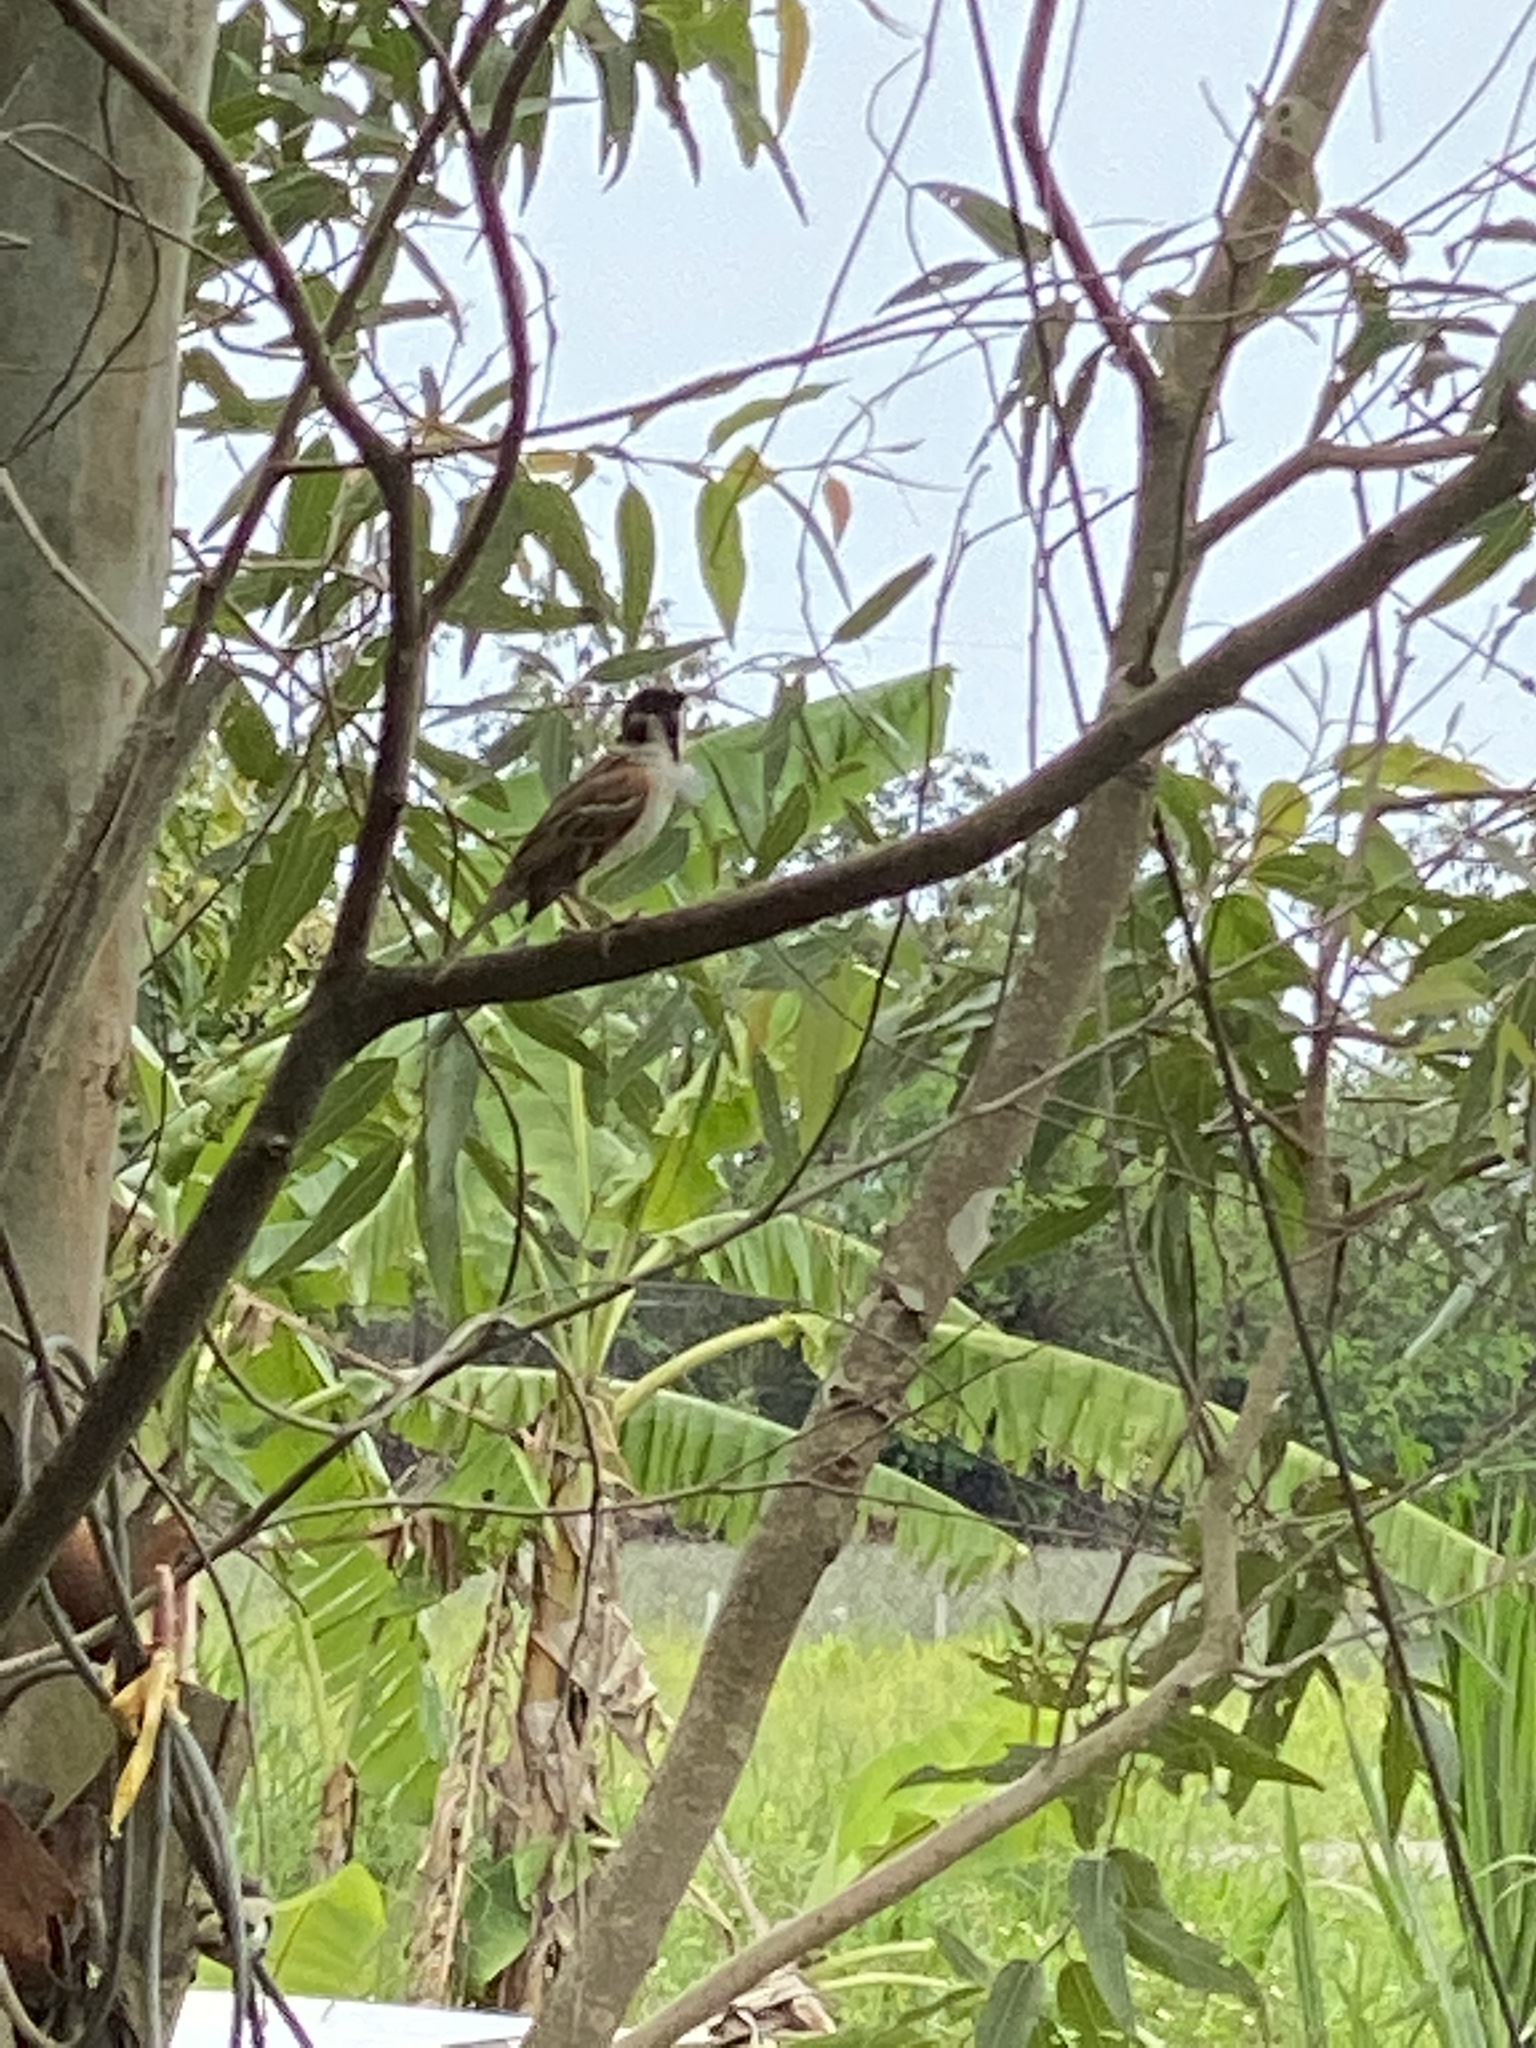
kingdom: Animalia
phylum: Chordata
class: Aves
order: Passeriformes
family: Passeridae
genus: Passer
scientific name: Passer montanus
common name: Eurasian tree sparrow
